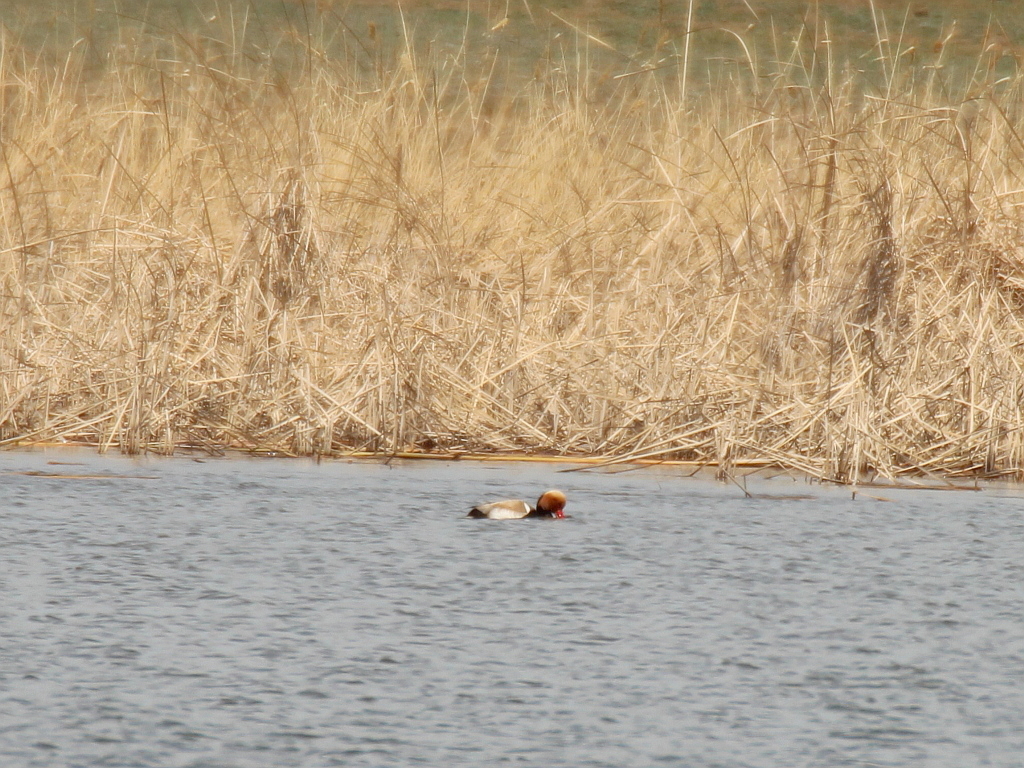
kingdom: Animalia
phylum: Chordata
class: Aves
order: Anseriformes
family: Anatidae
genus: Netta
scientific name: Netta rufina
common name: Red-crested pochard
